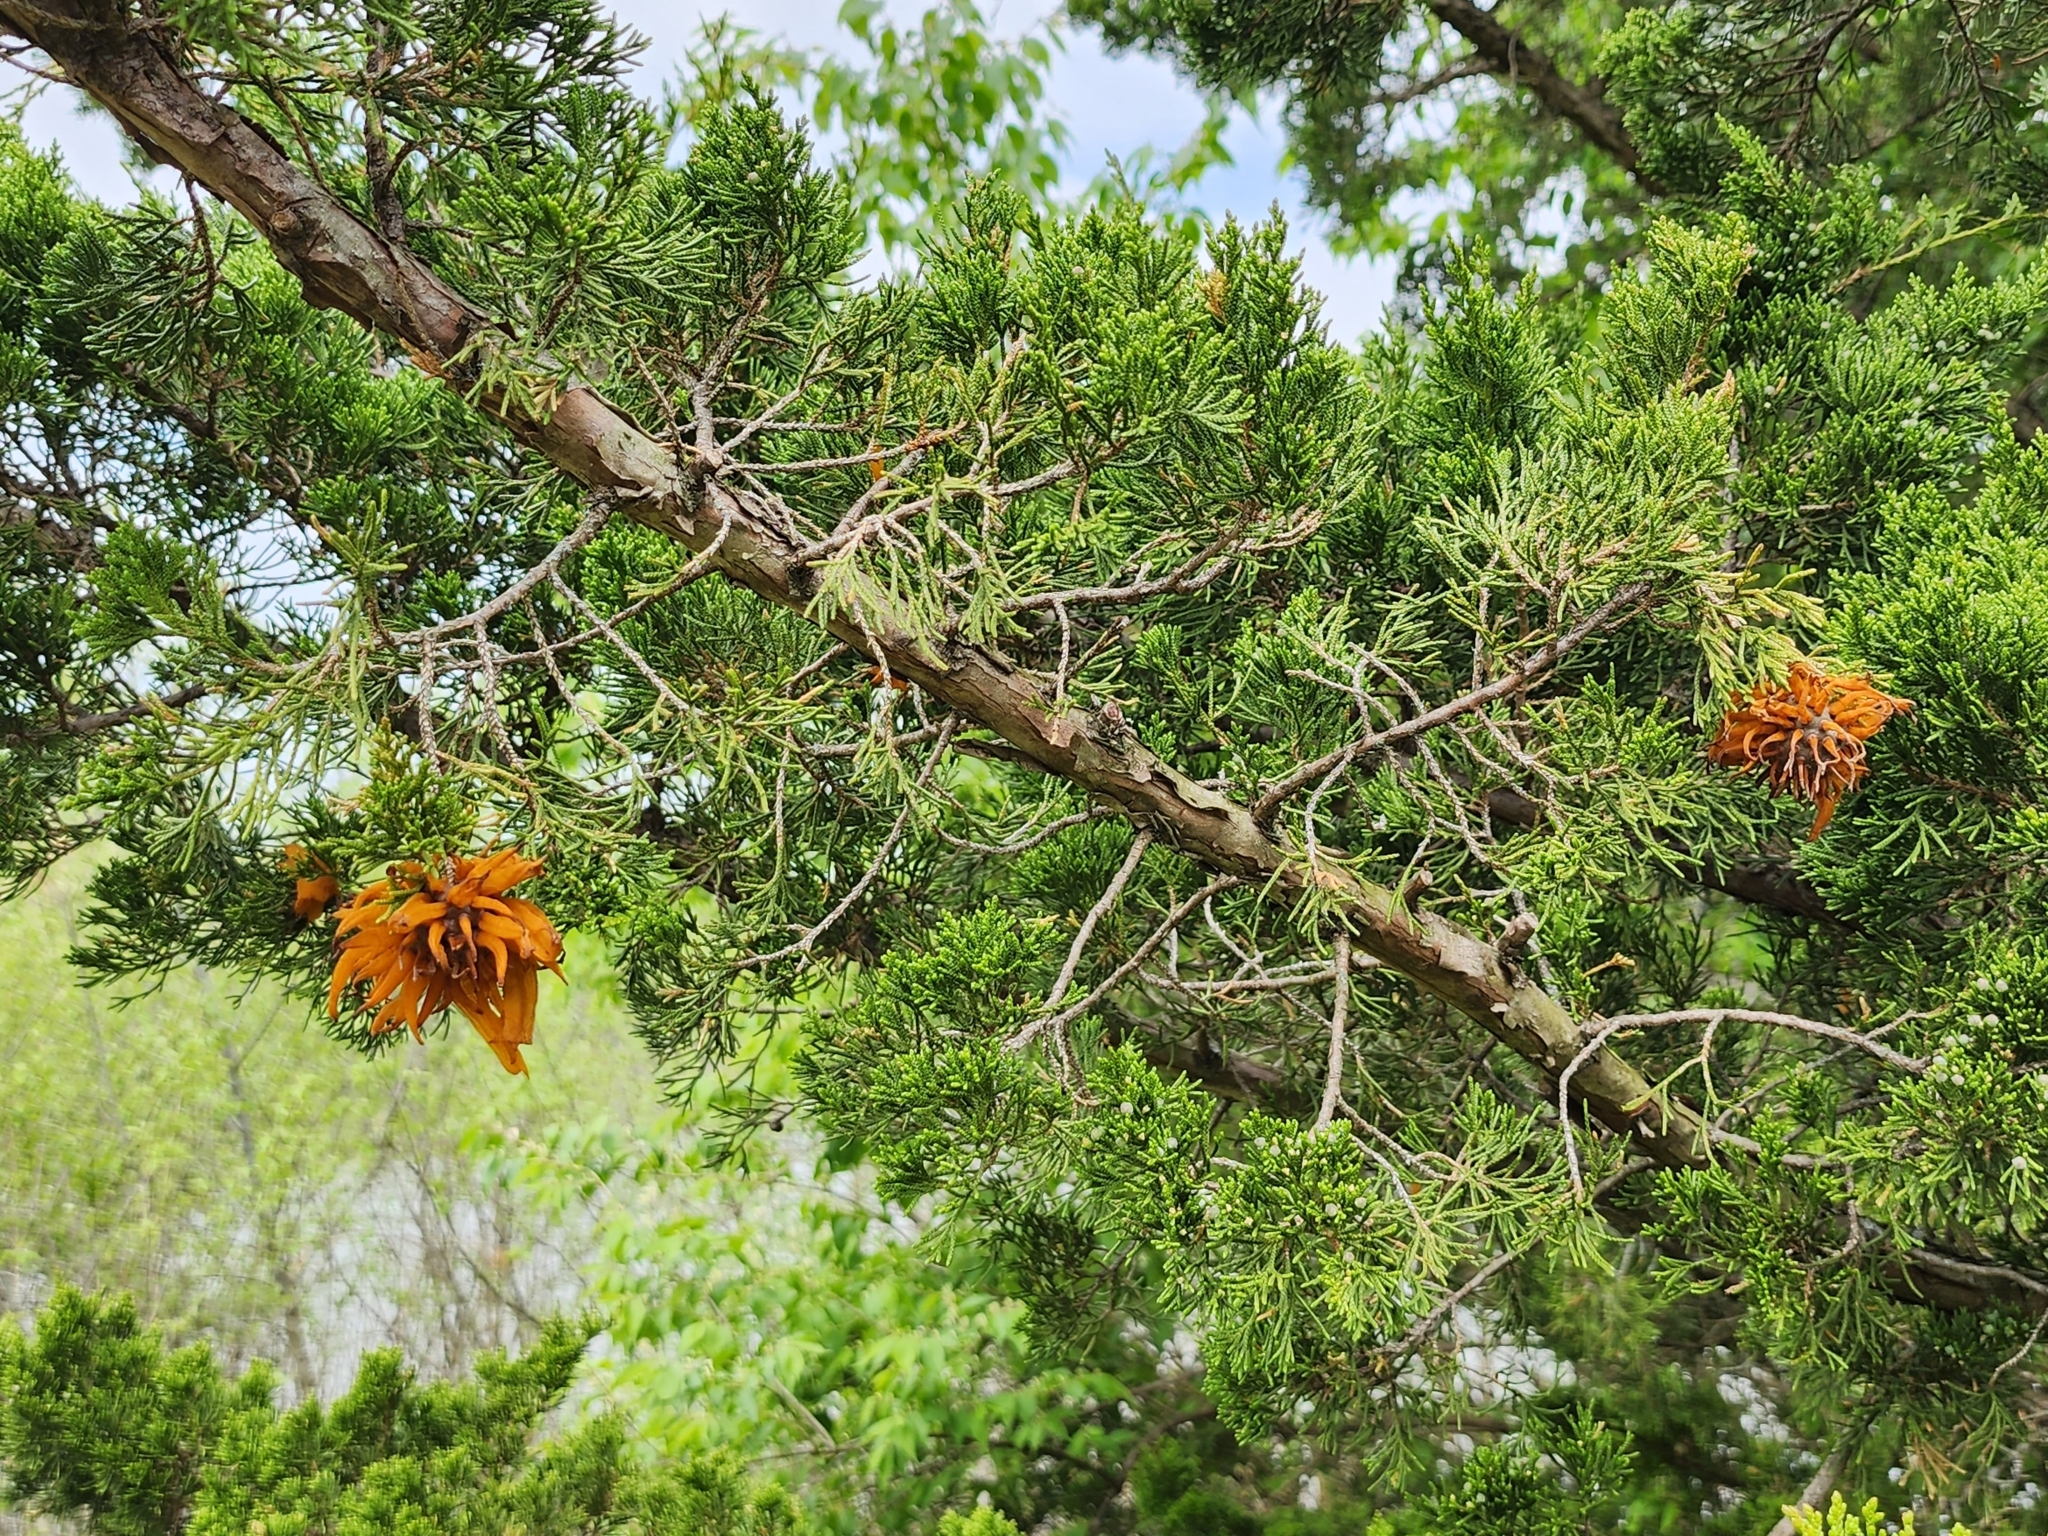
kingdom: Fungi
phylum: Basidiomycota
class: Pucciniomycetes
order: Pucciniales
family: Gymnosporangiaceae
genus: Gymnosporangium
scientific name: Gymnosporangium juniperi-virginianae
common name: Juniper-apple rust
